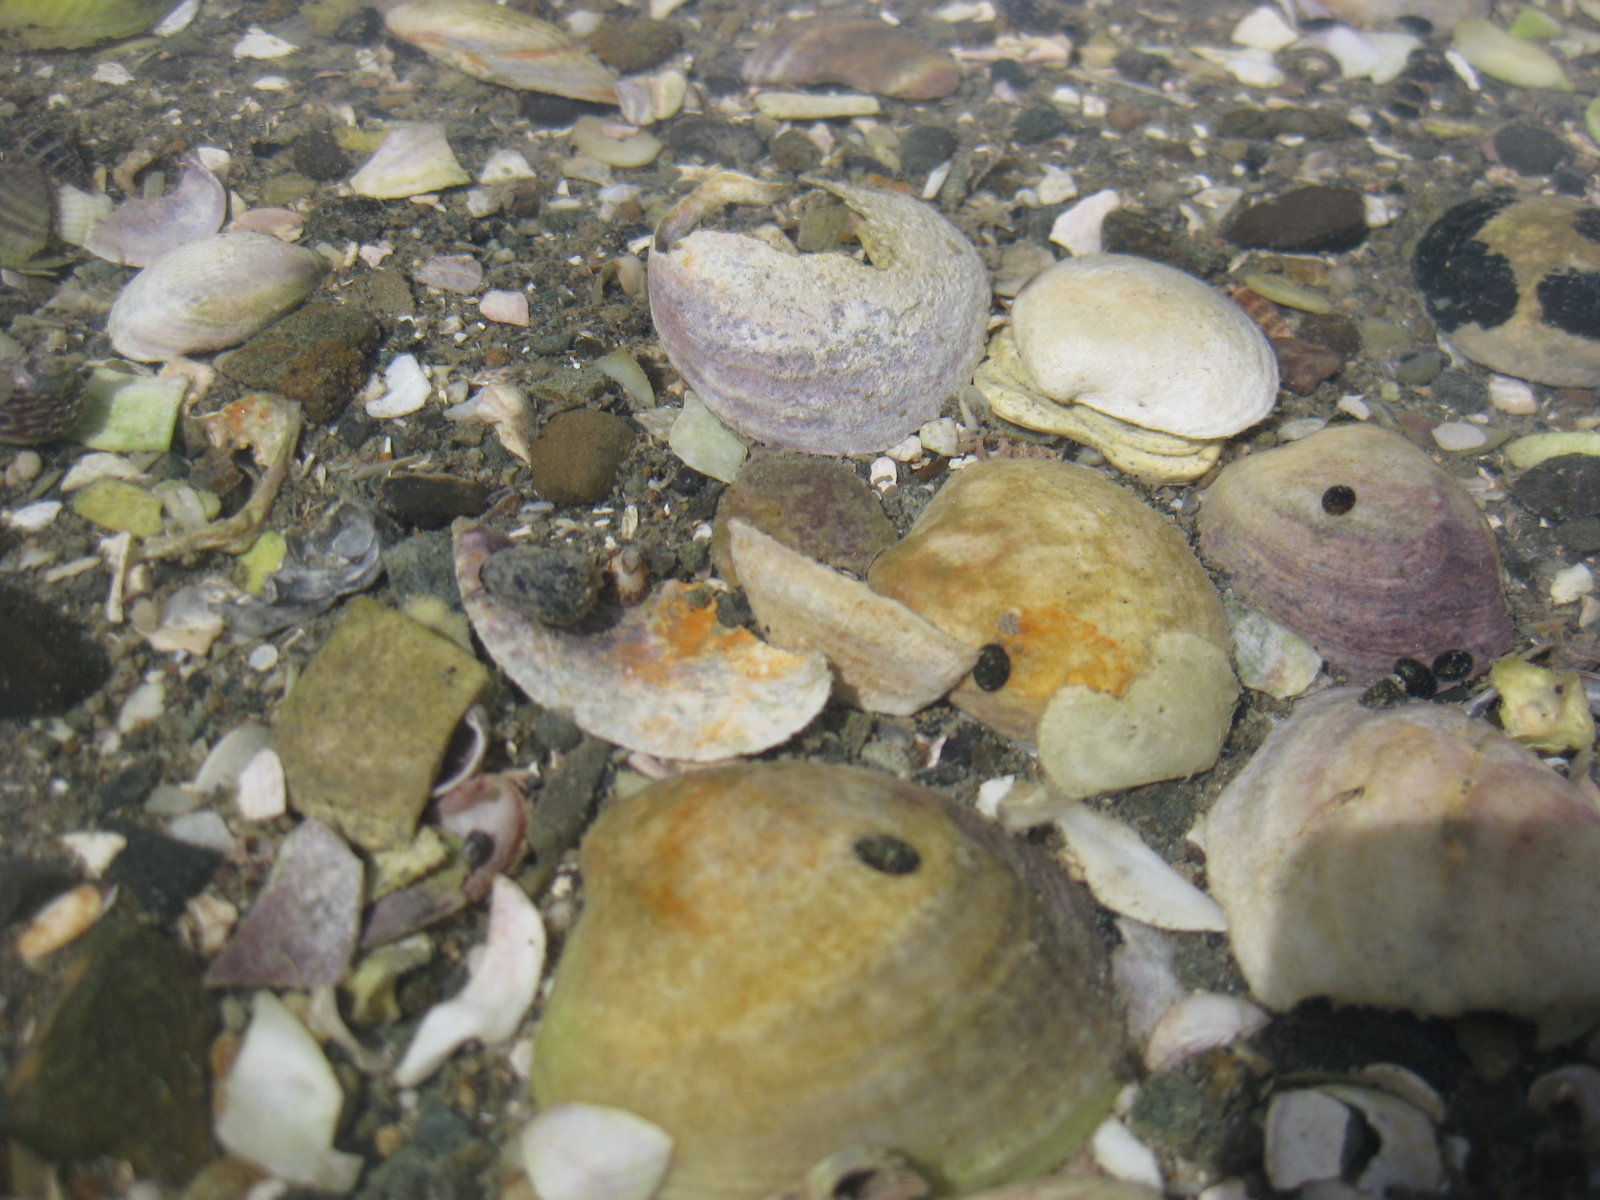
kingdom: Animalia
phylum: Mollusca
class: Gastropoda
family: Lottiidae
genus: Notoacmea
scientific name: Notoacmea scapha
